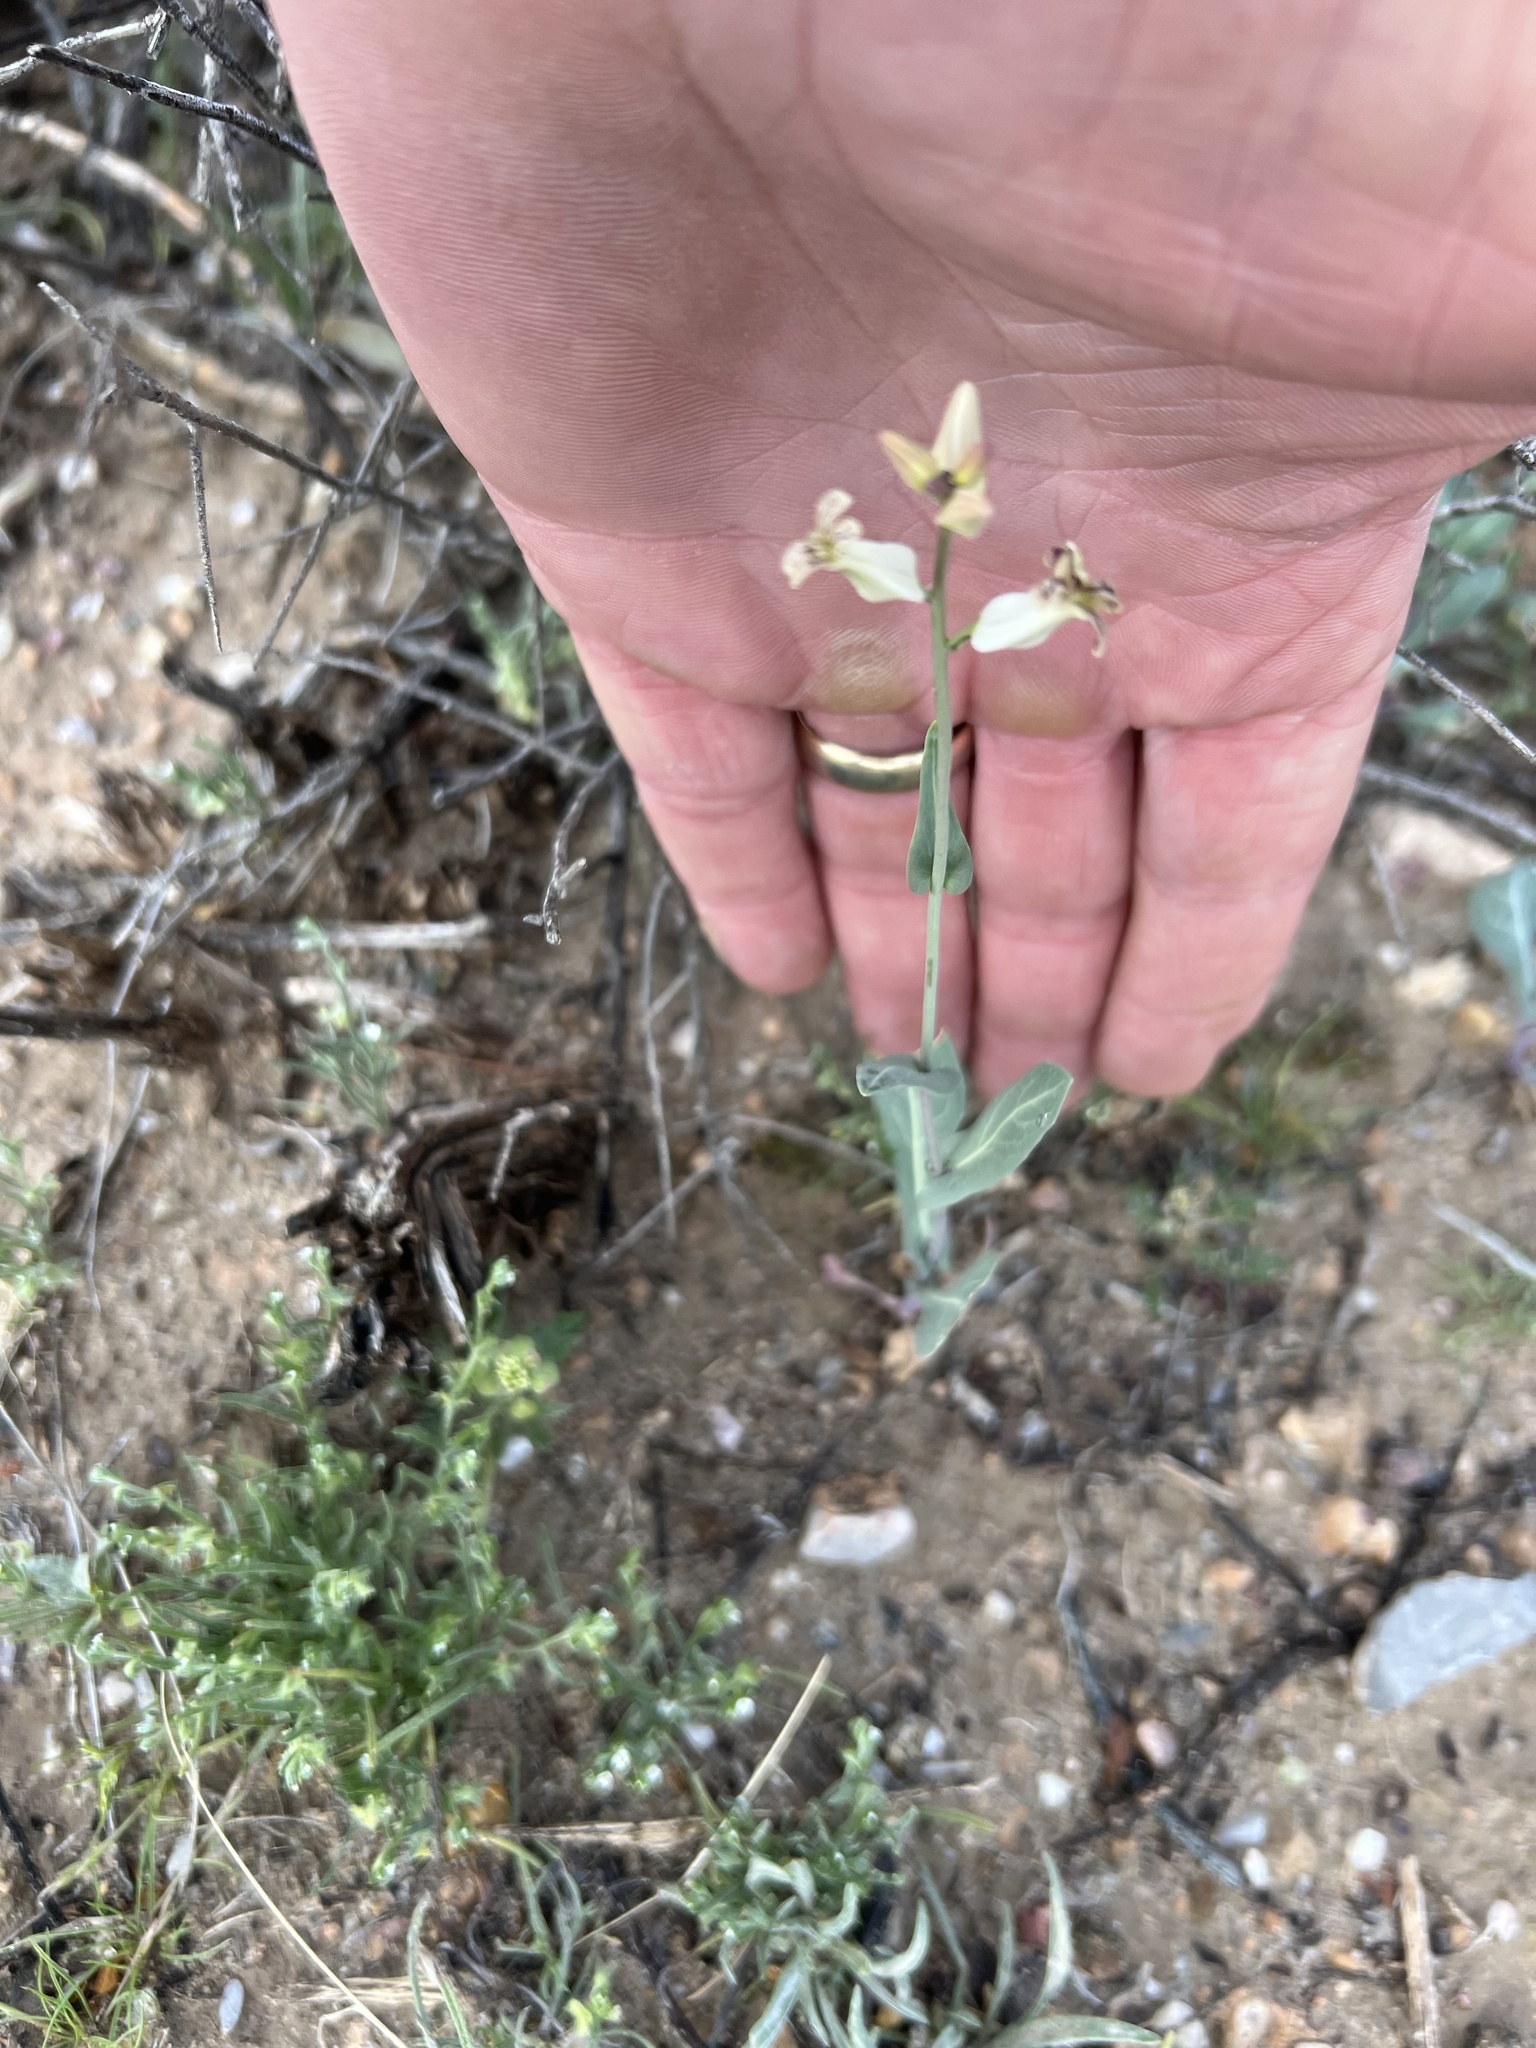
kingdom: Plantae
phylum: Tracheophyta
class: Magnoliopsida
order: Brassicales
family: Brassicaceae
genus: Streptanthus
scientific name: Streptanthus carinatus
